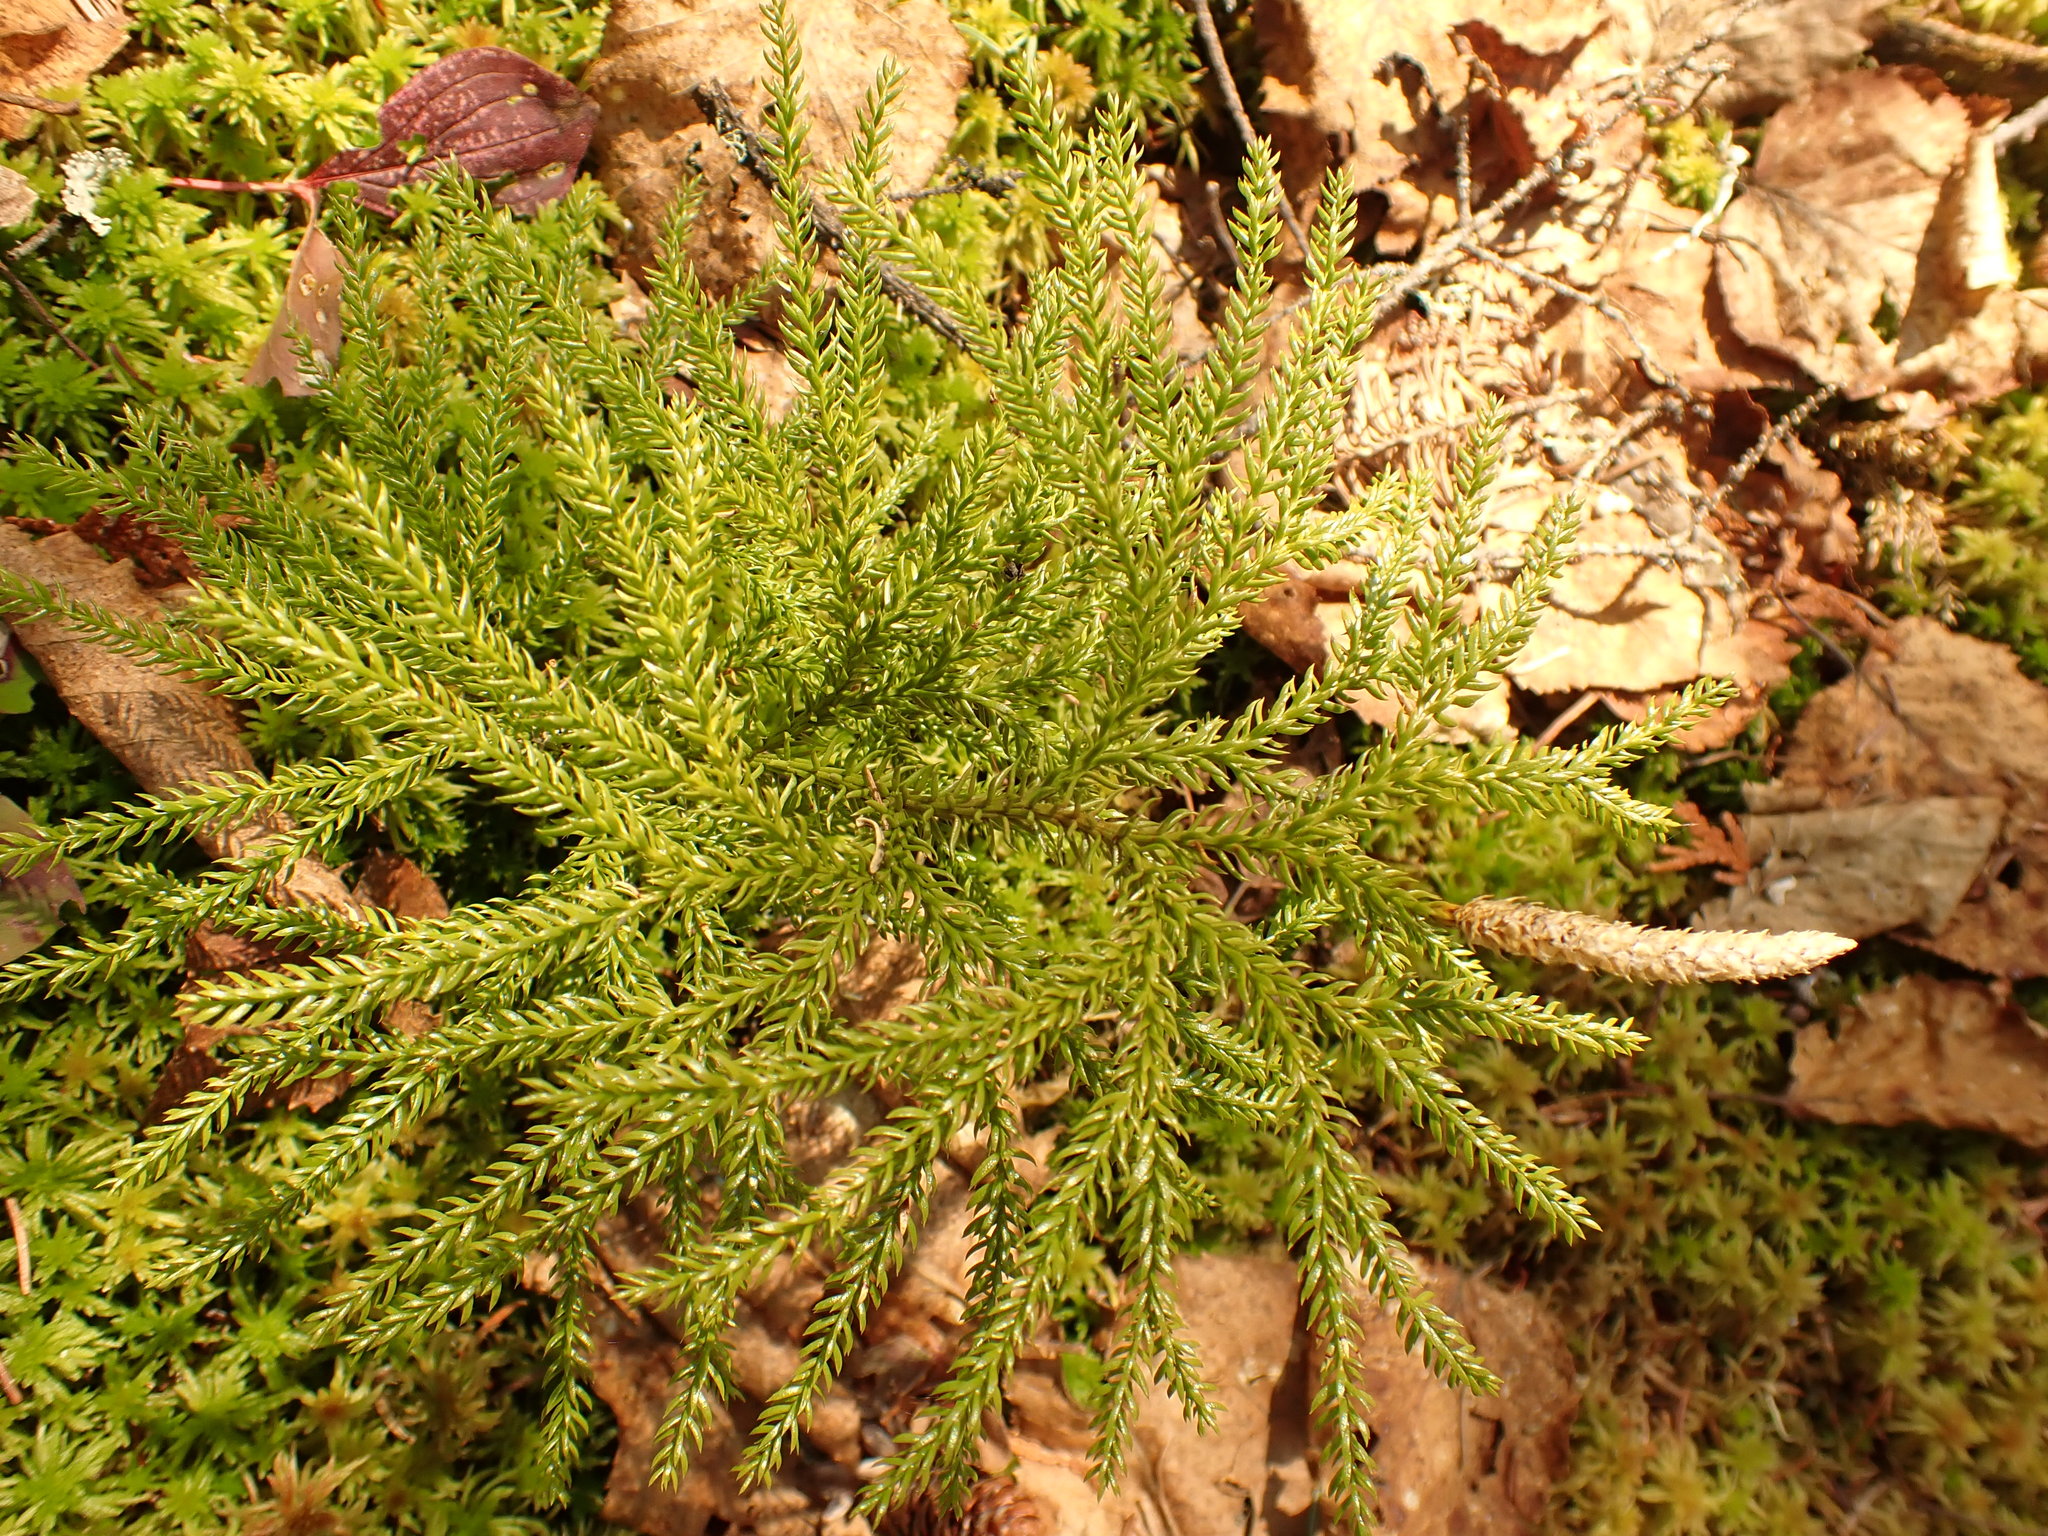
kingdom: Plantae
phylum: Tracheophyta
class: Lycopodiopsida
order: Lycopodiales
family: Lycopodiaceae
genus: Dendrolycopodium
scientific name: Dendrolycopodium dendroideum
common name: Northern tree-clubmoss
